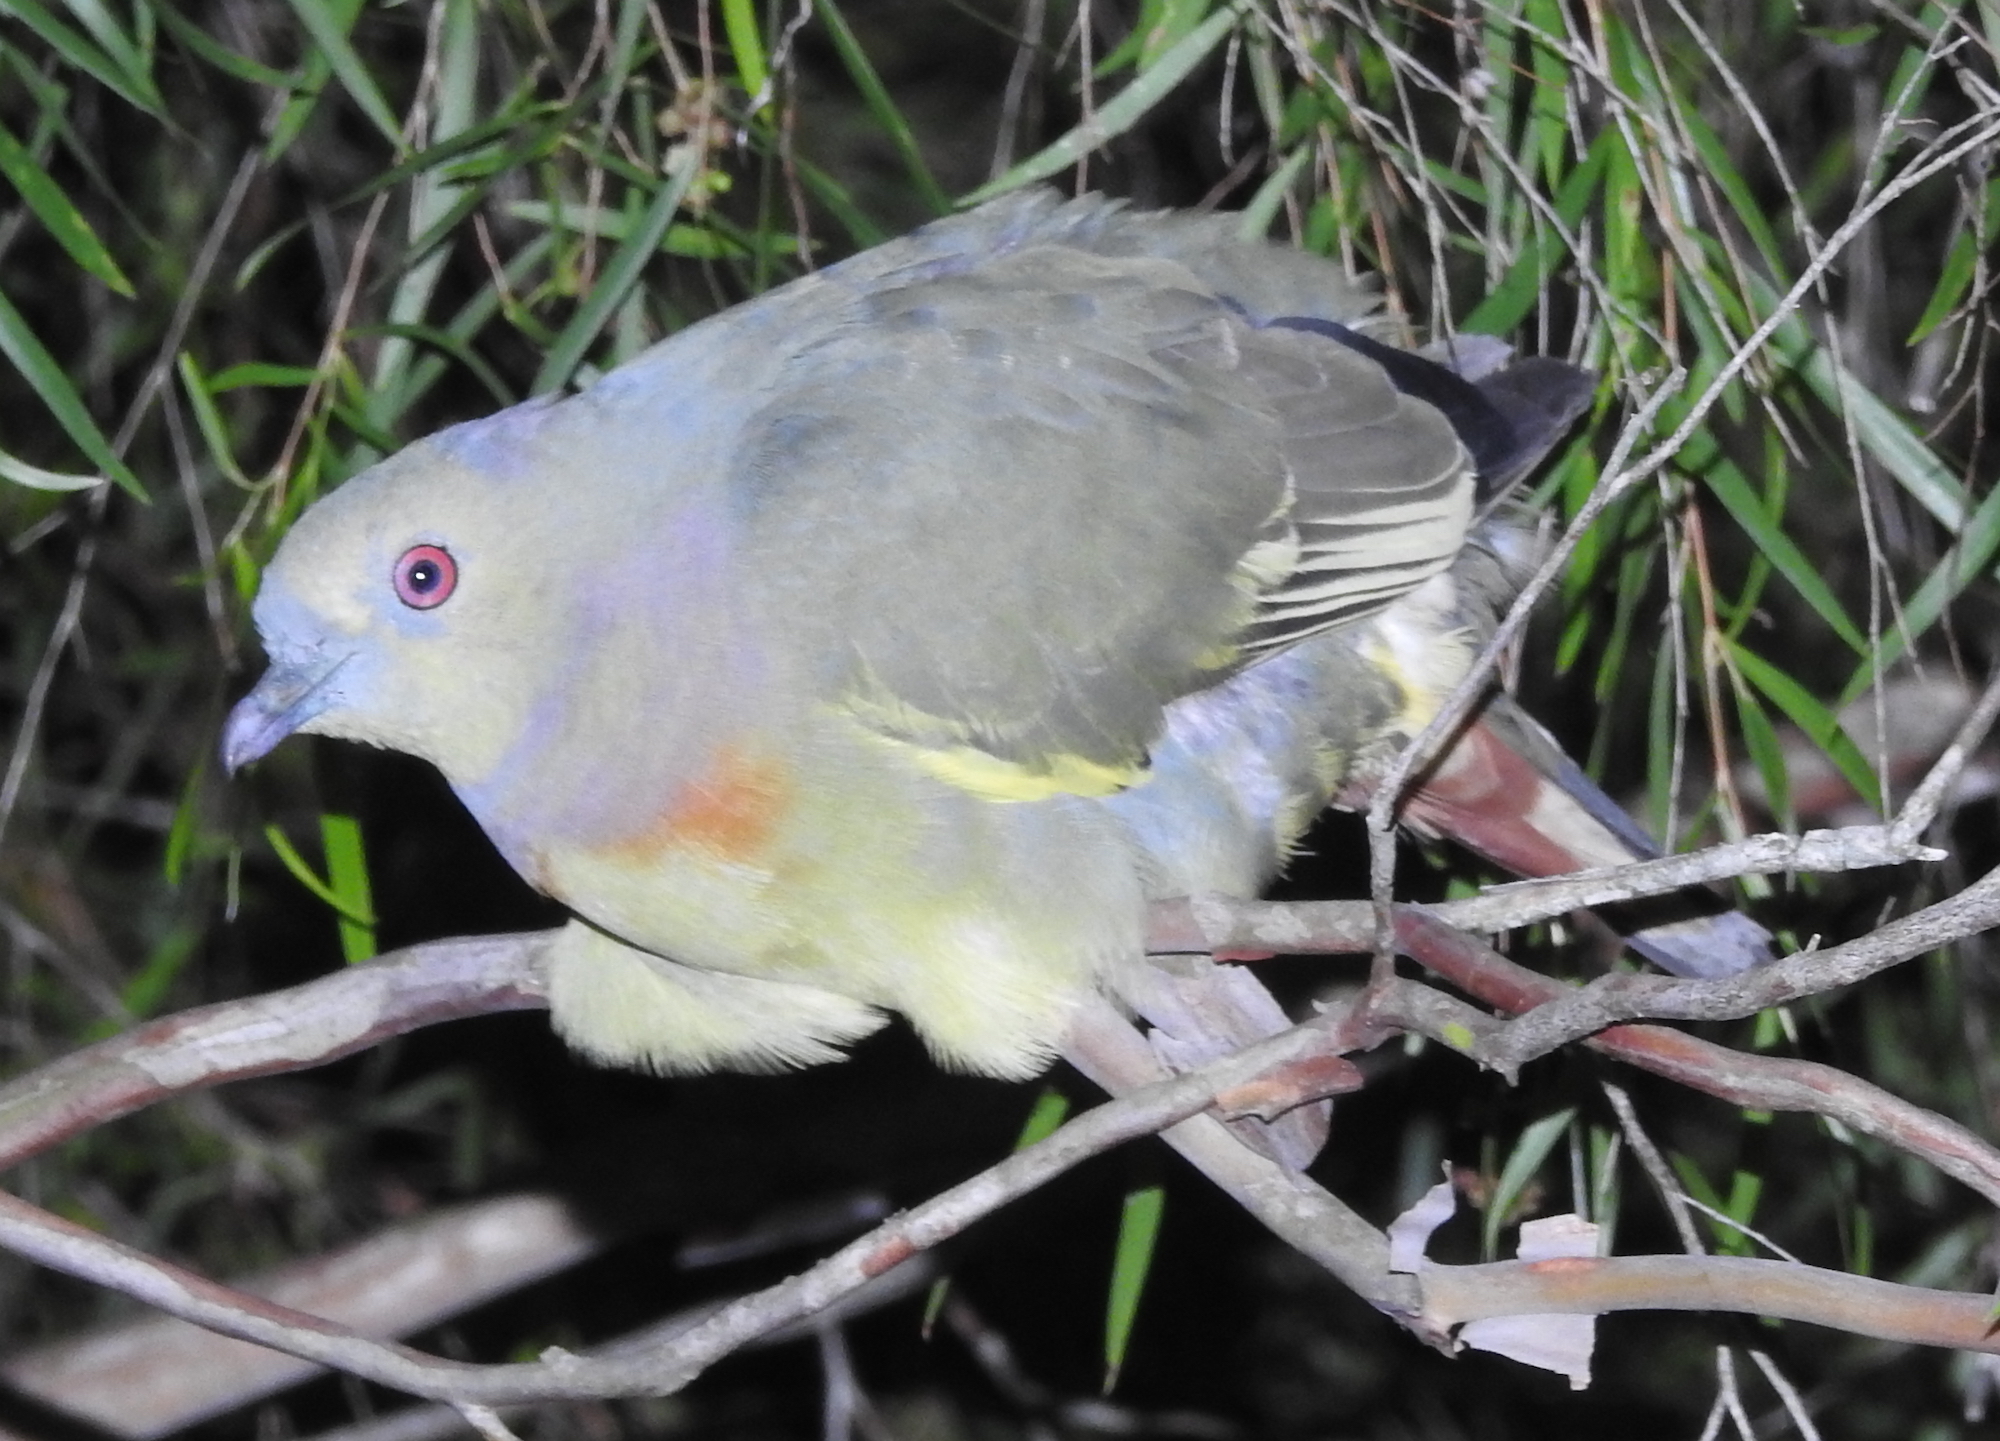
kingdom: Animalia
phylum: Chordata
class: Aves
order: Columbiformes
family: Columbidae
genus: Treron
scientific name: Treron vernans
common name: Pink-necked green pigeon
